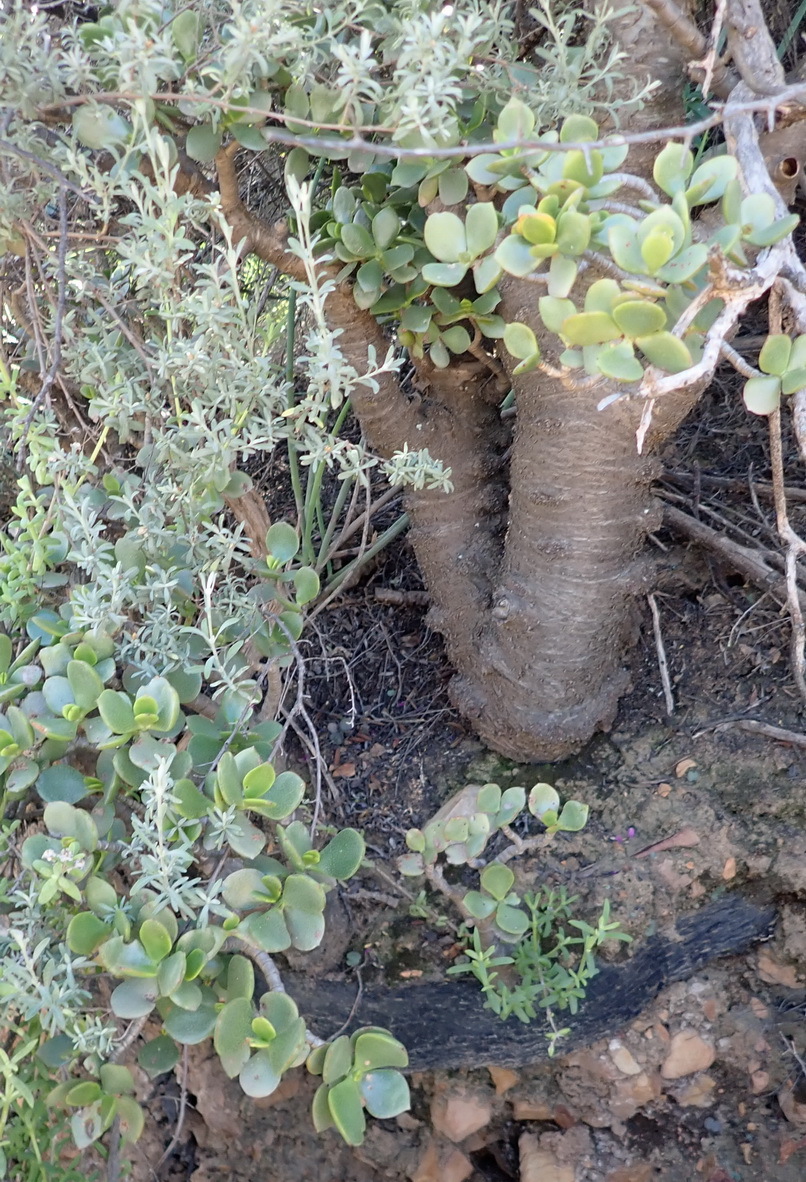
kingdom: Plantae
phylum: Tracheophyta
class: Magnoliopsida
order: Saxifragales
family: Crassulaceae
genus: Crassula
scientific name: Crassula ovata
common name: Jade plant
